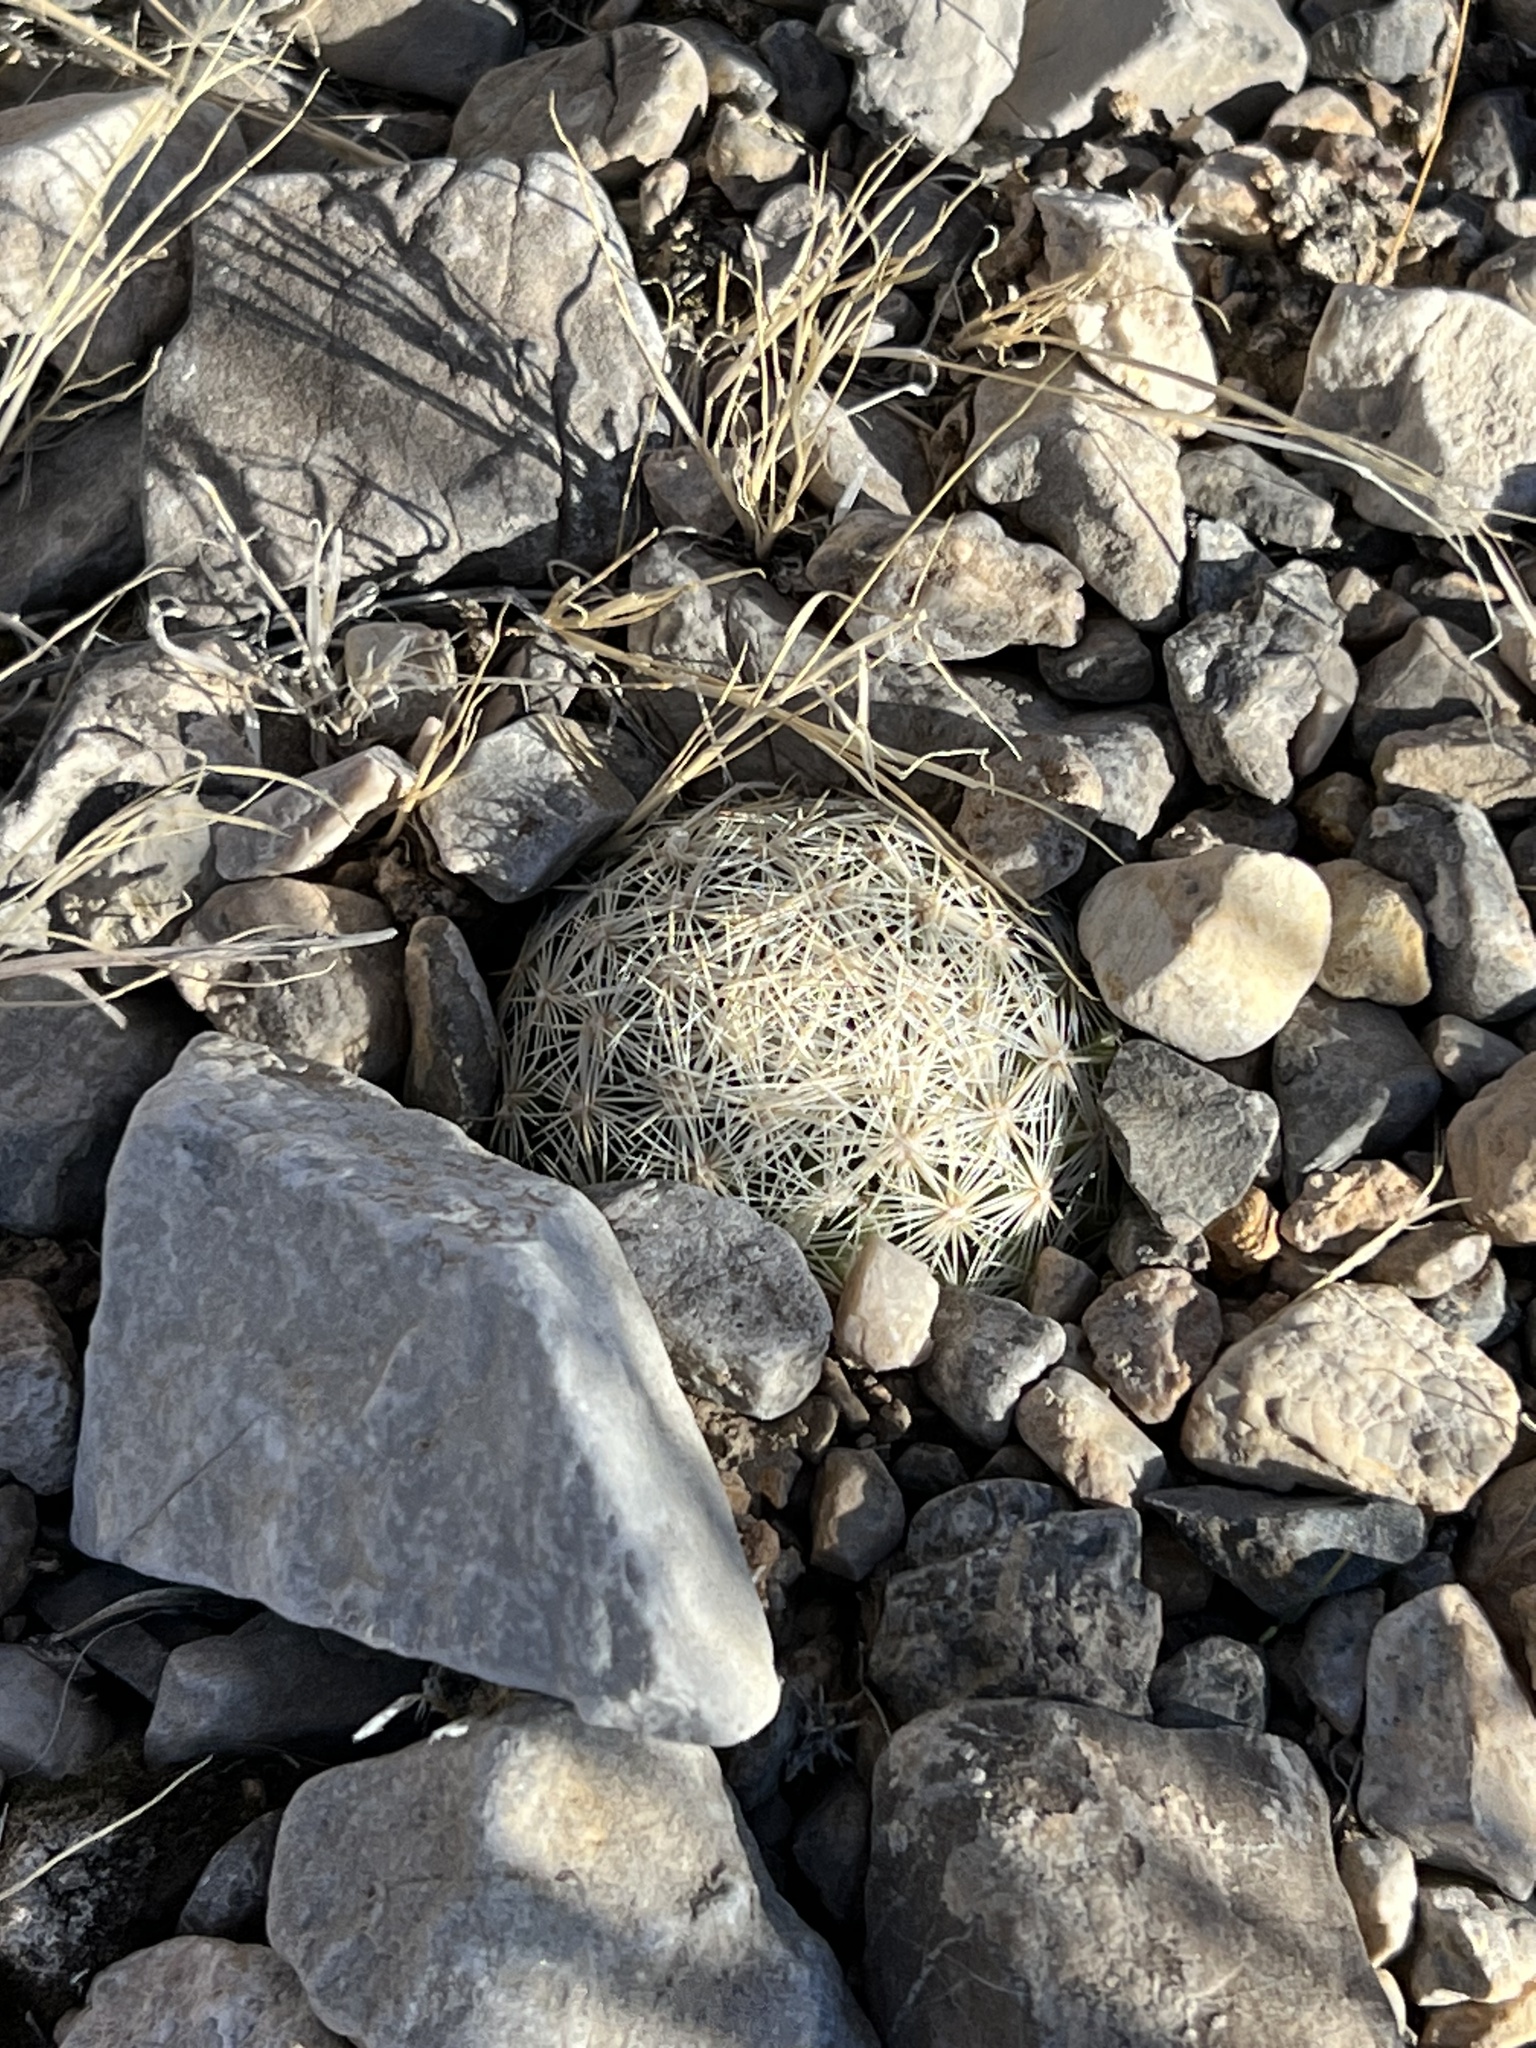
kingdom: Plantae
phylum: Tracheophyta
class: Magnoliopsida
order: Caryophyllales
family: Cactaceae
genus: Pelecyphora
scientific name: Pelecyphora vivipara
